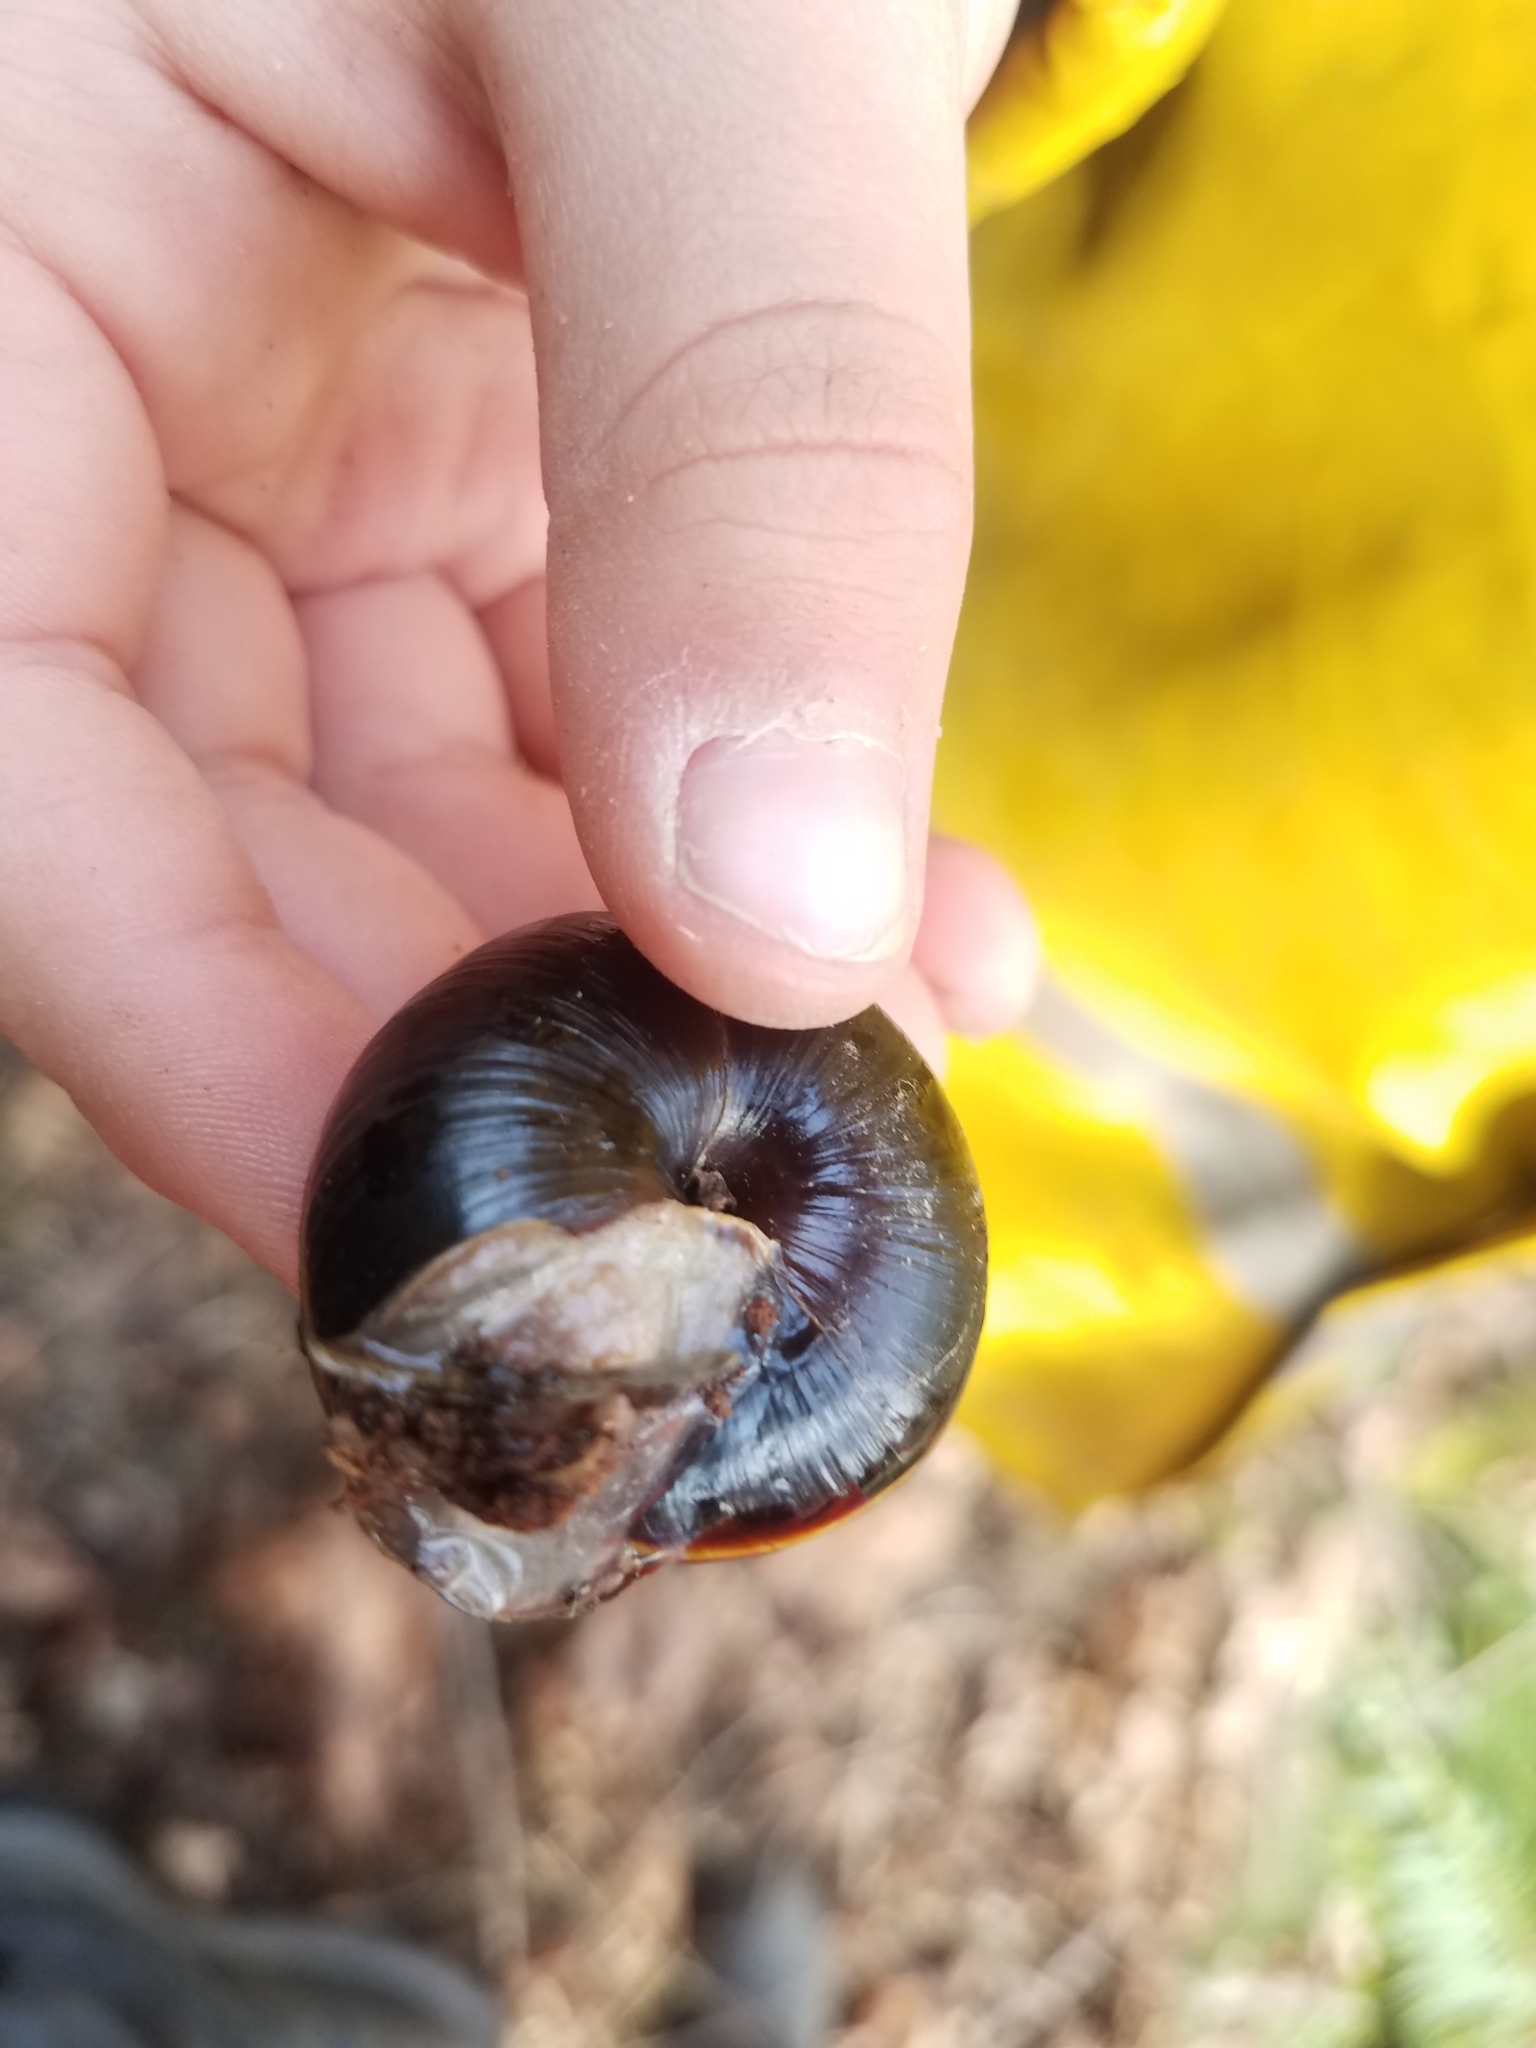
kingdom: Animalia
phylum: Mollusca
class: Gastropoda
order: Stylommatophora
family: Xanthonychidae
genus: Monadenia
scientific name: Monadenia fidelis
